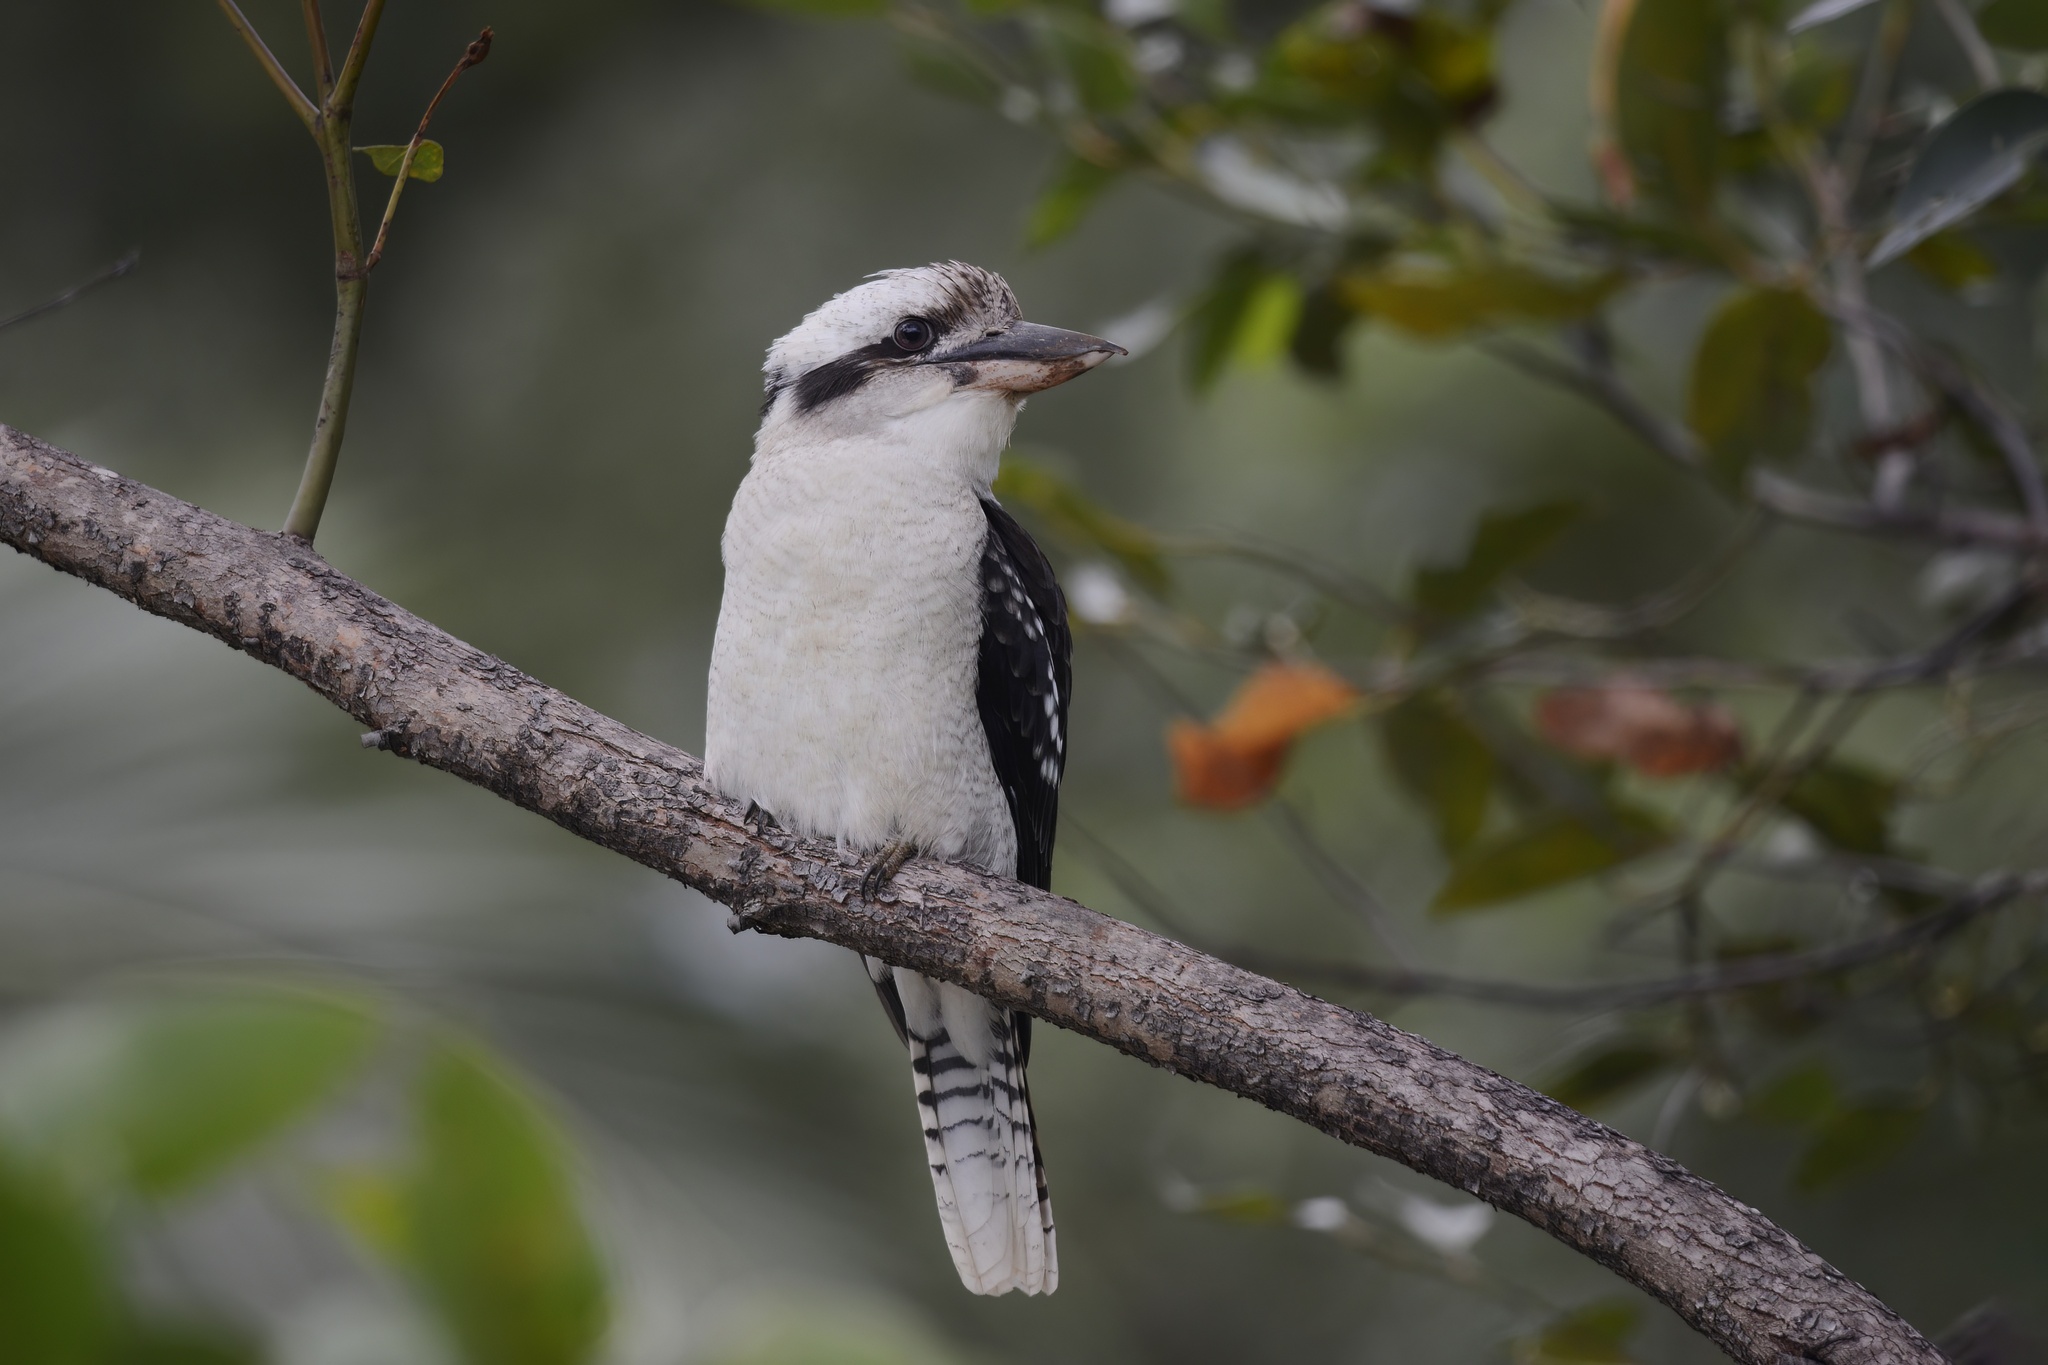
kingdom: Animalia
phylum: Chordata
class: Aves
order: Coraciiformes
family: Alcedinidae
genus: Dacelo
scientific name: Dacelo novaeguineae
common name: Laughing kookaburra
